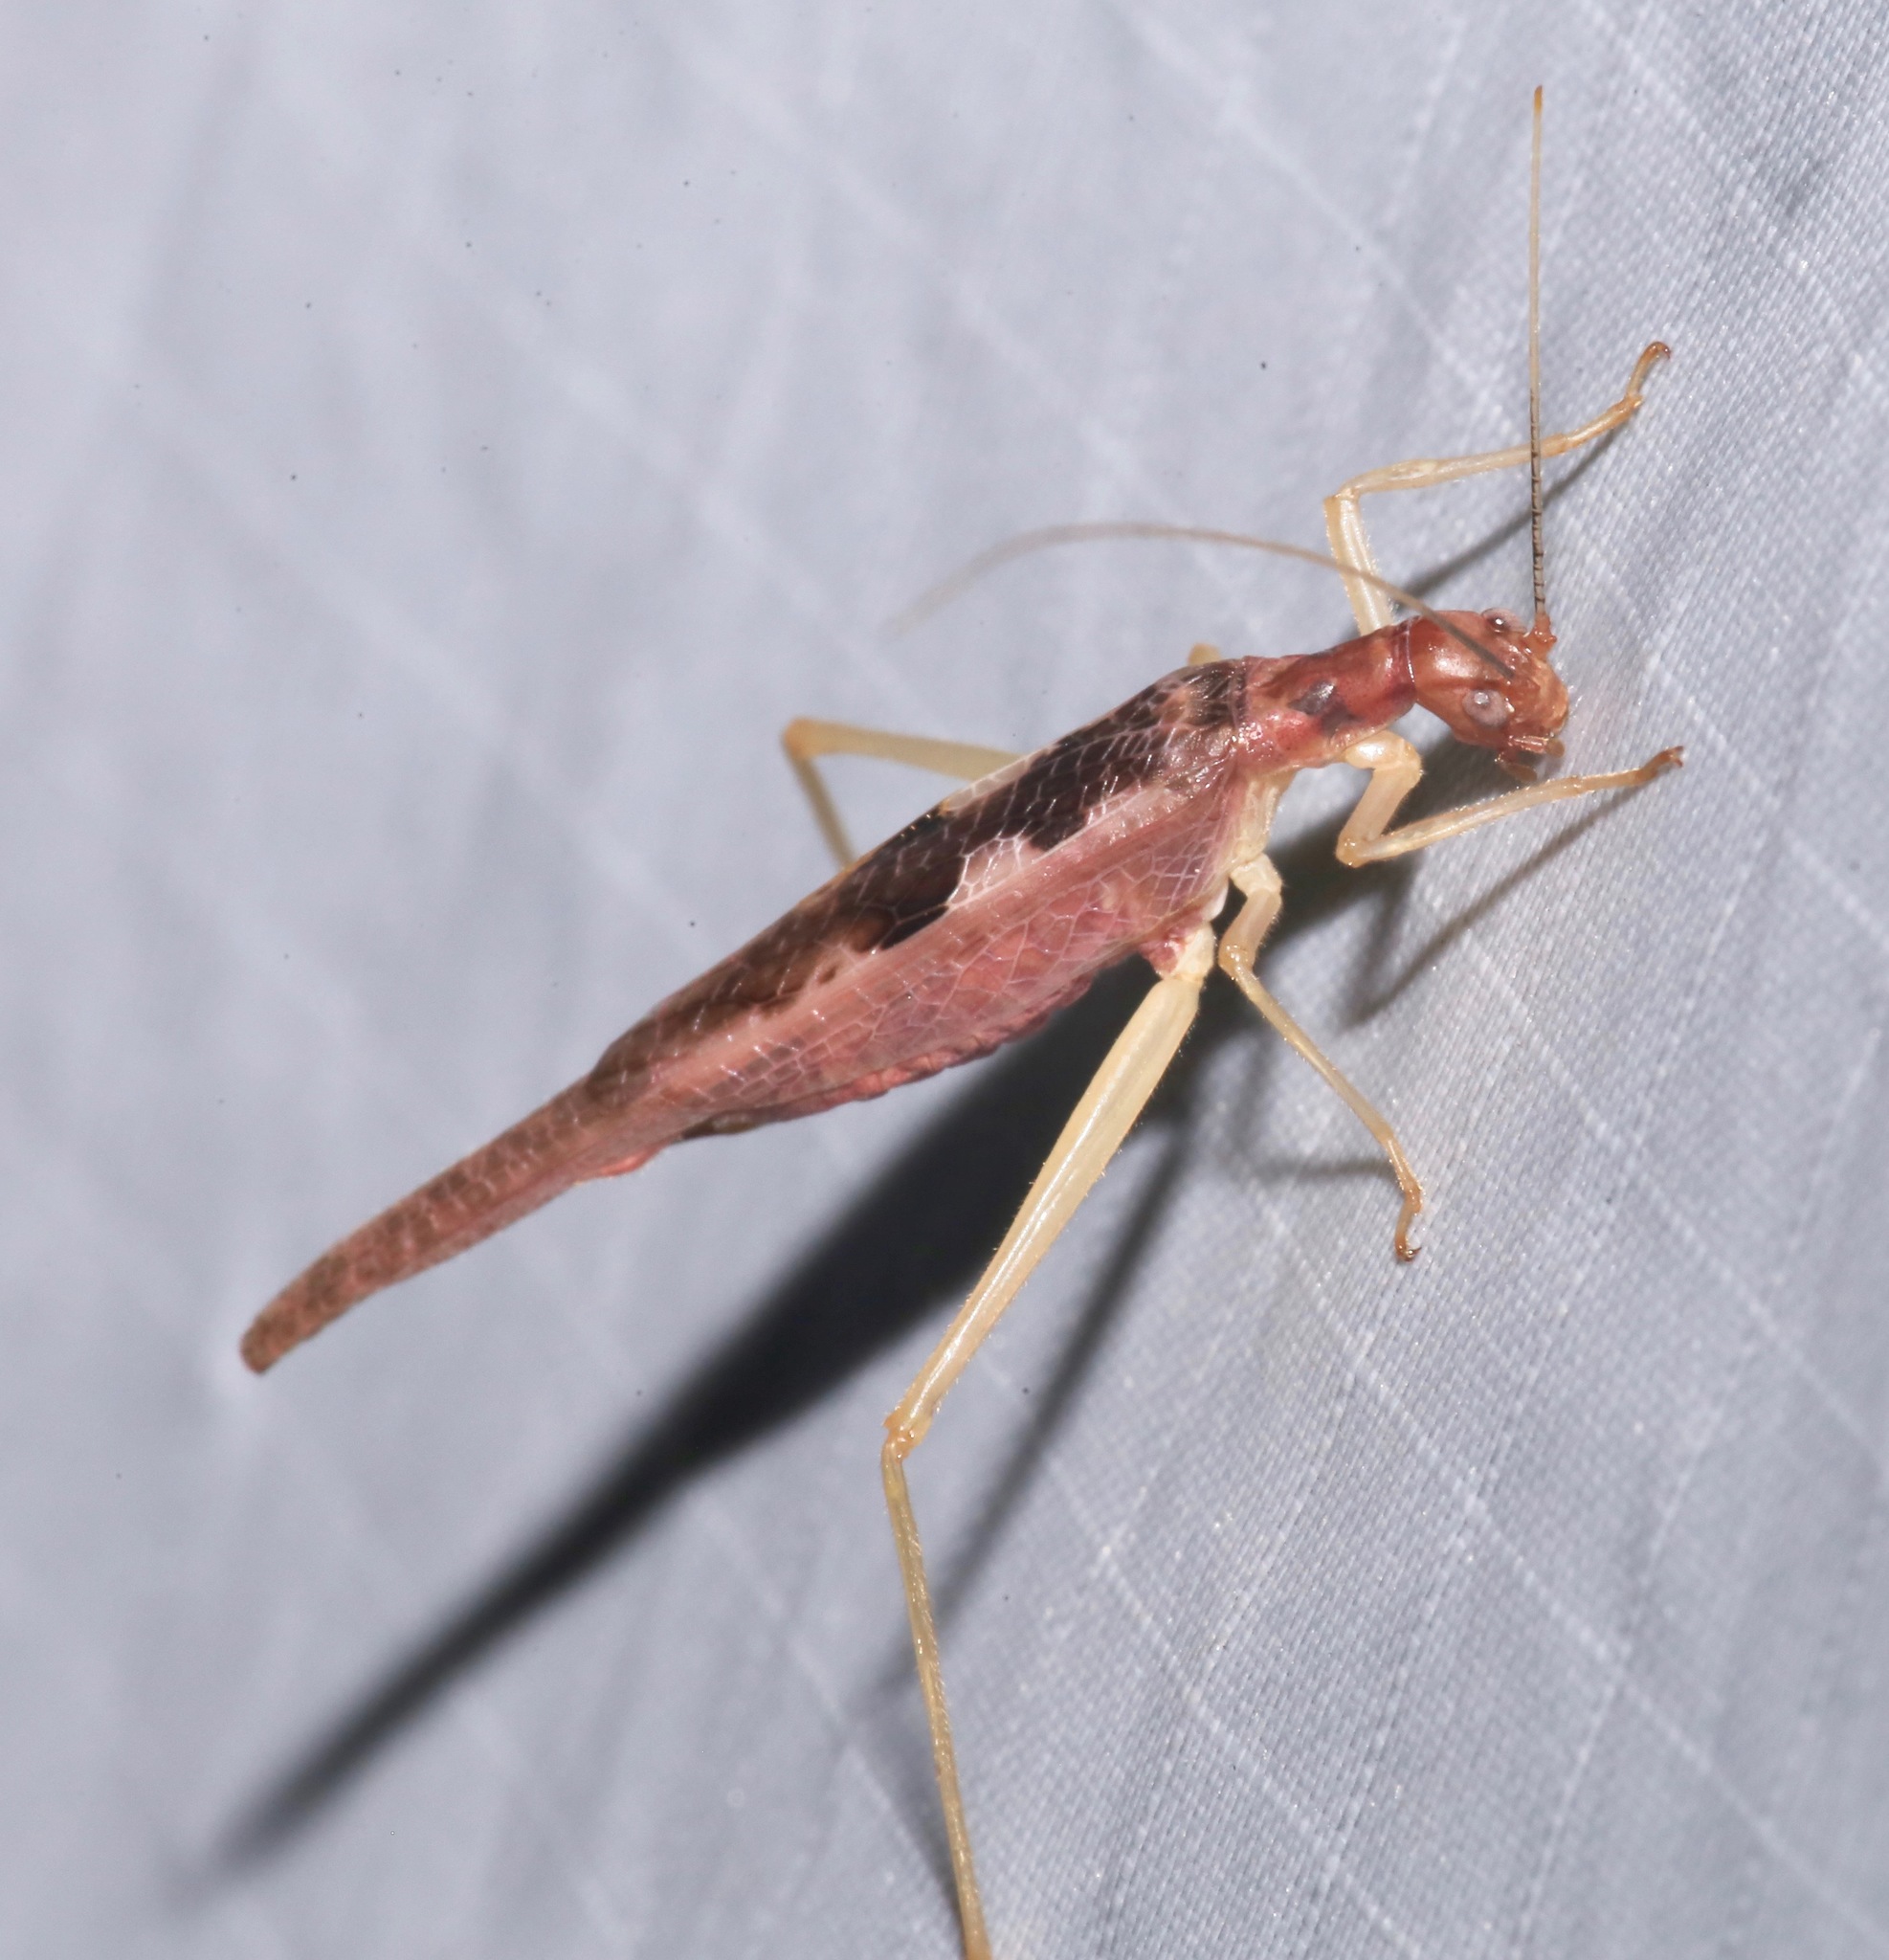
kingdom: Animalia
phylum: Arthropoda
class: Insecta
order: Orthoptera
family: Gryllidae
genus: Neoxabea
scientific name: Neoxabea bipunctata
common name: Two-spotted tree cricket
